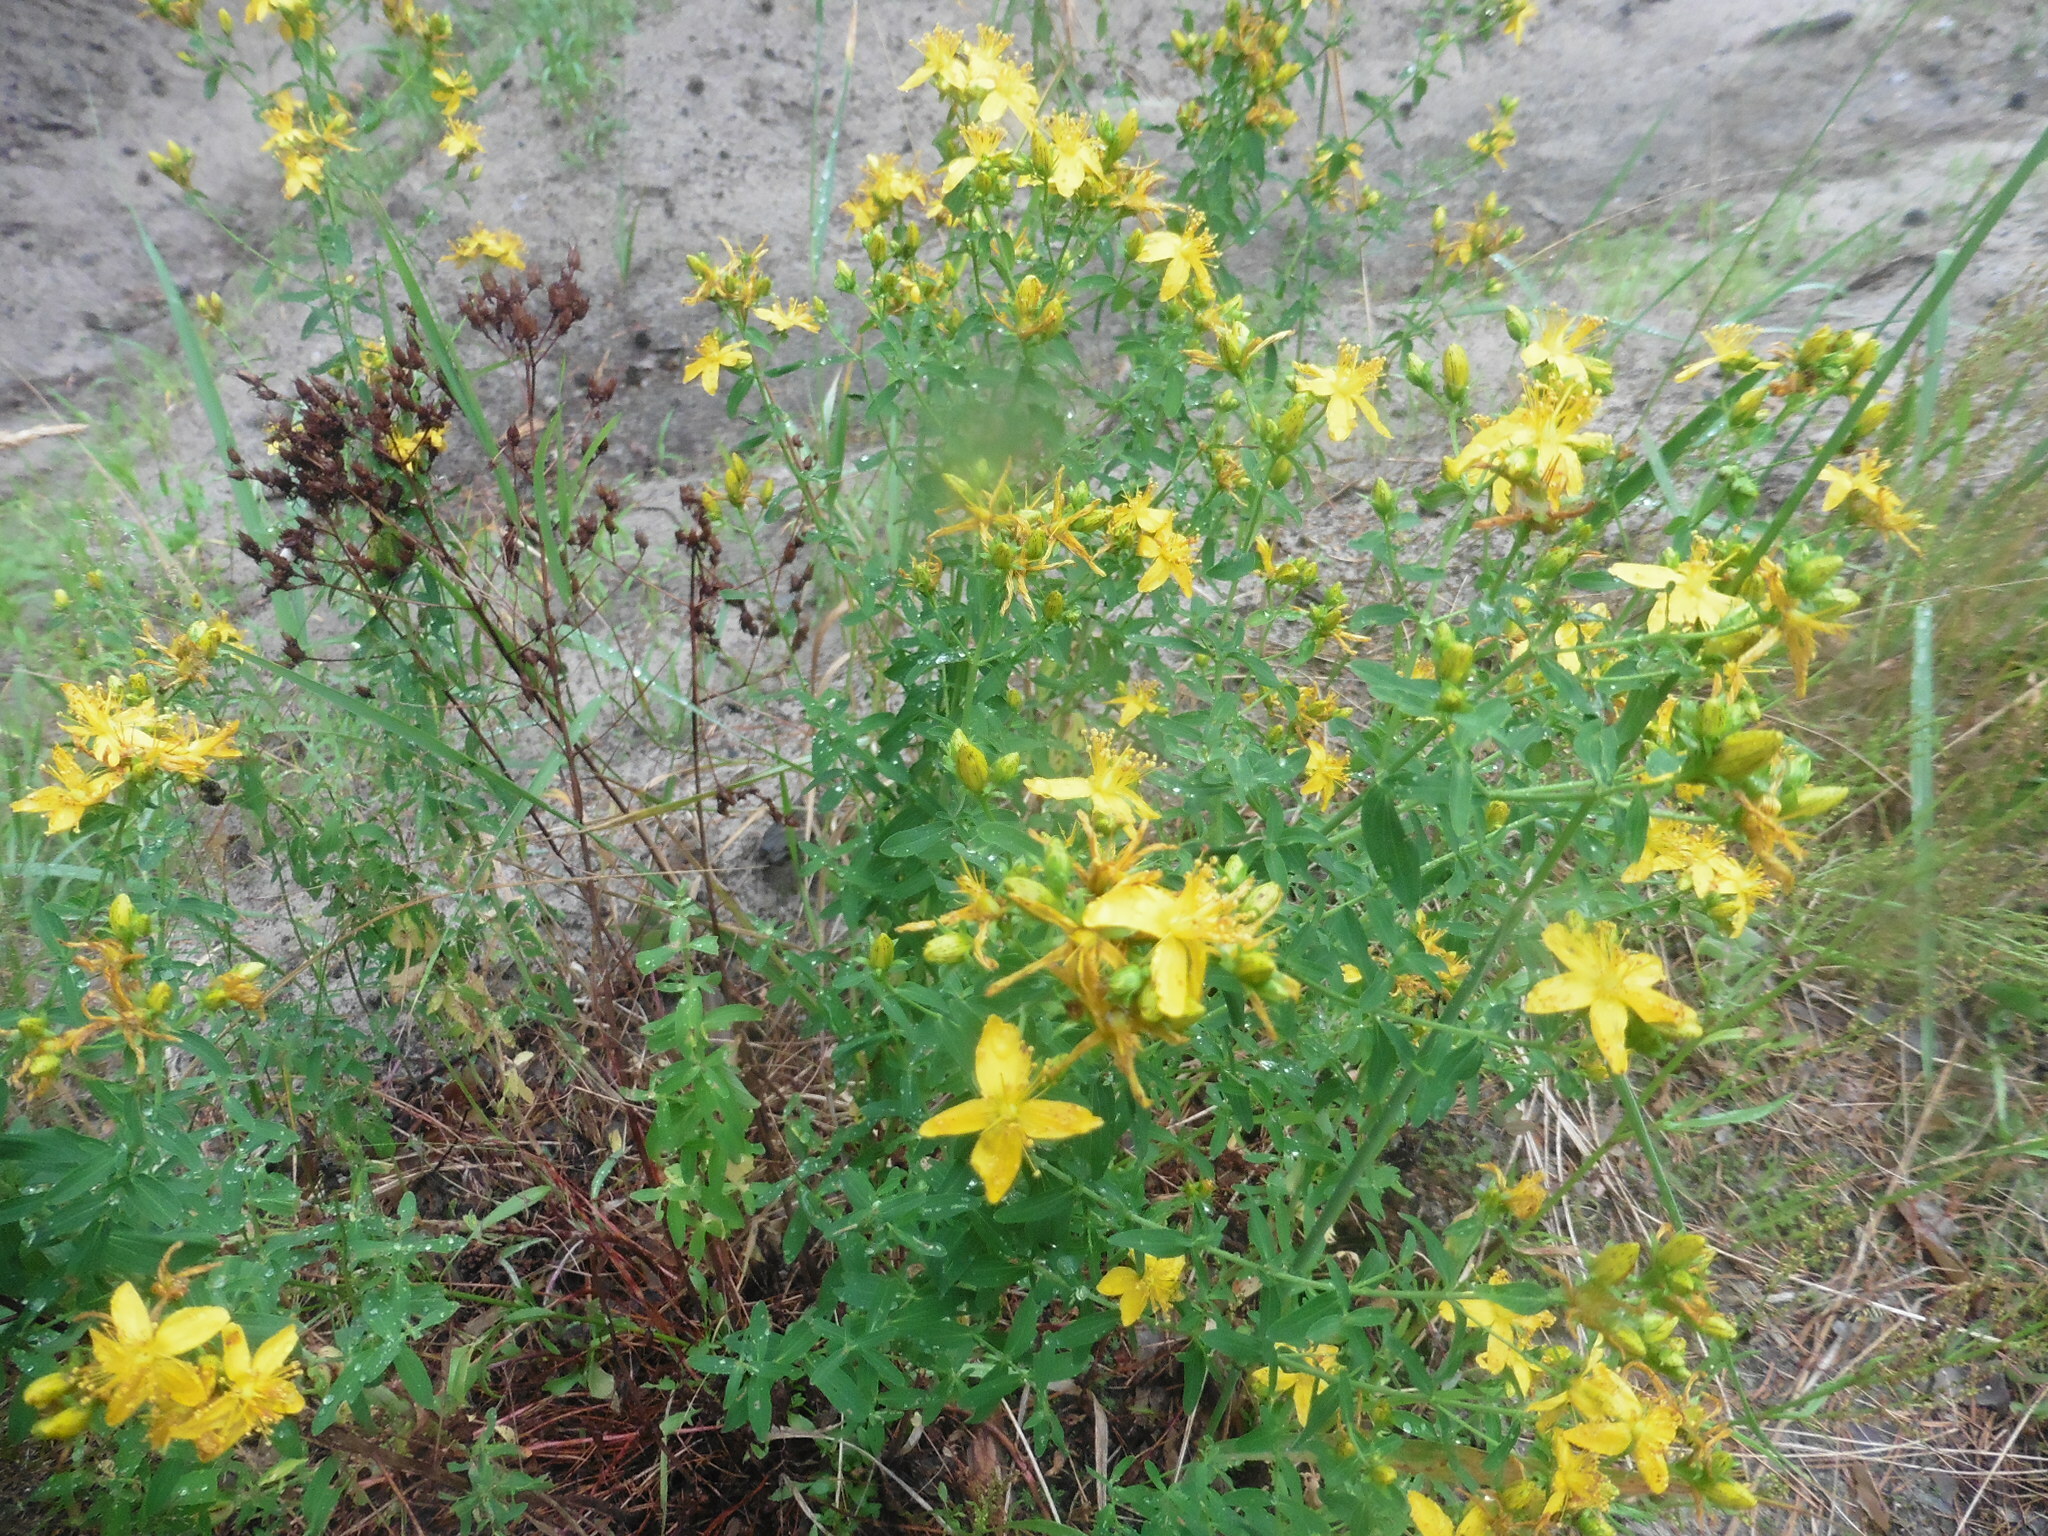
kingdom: Plantae
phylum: Tracheophyta
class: Magnoliopsida
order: Malpighiales
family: Hypericaceae
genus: Hypericum
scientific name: Hypericum perforatum
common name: Common st. johnswort
